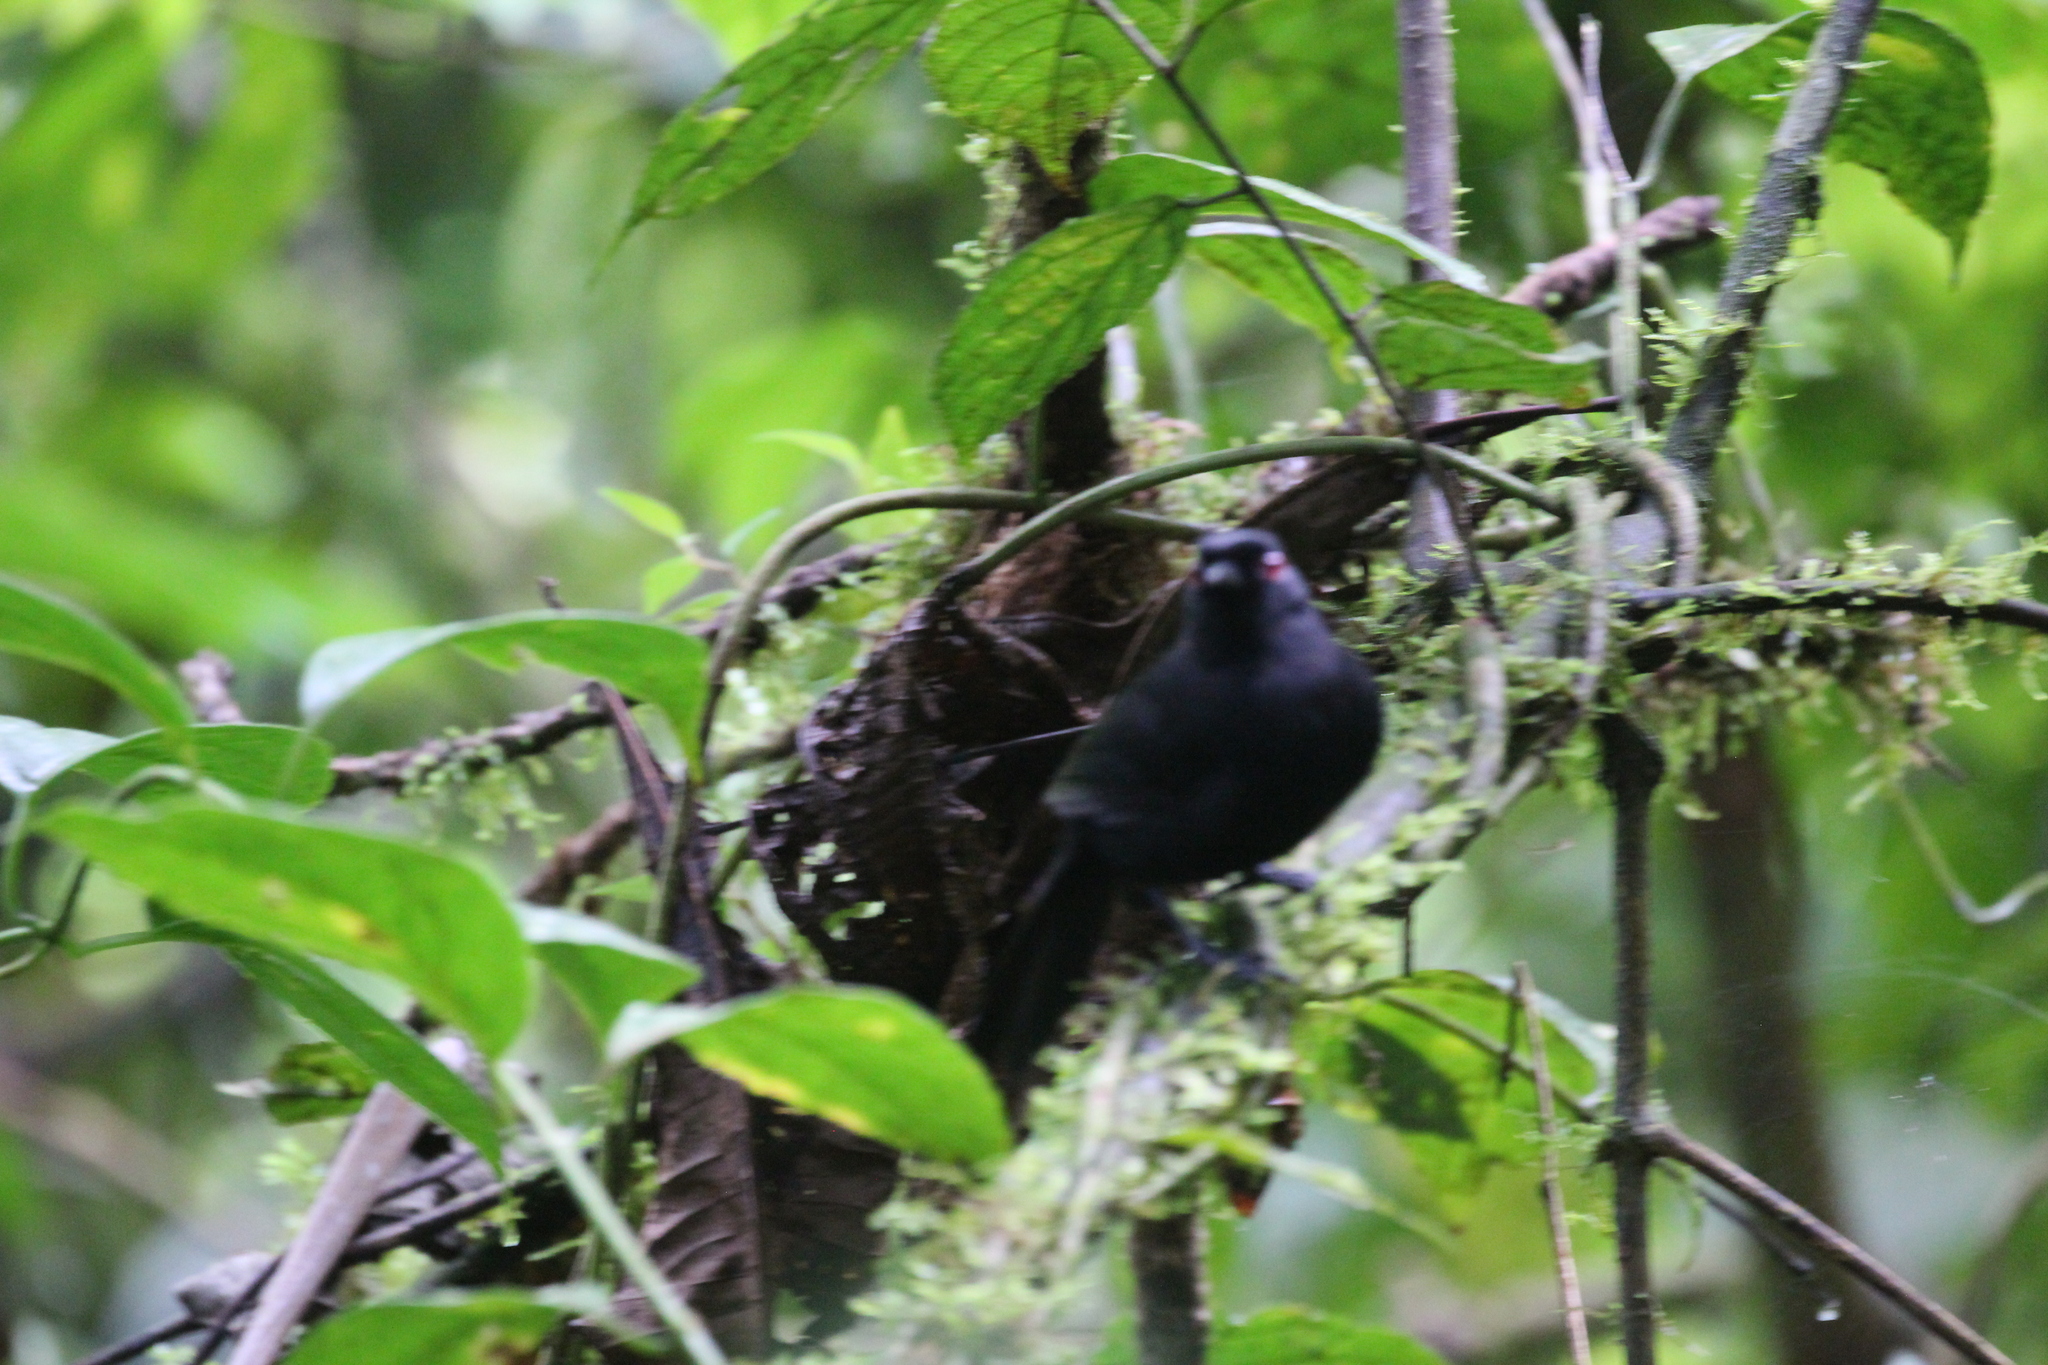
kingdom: Animalia
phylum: Chordata
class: Aves
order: Passeriformes
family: Thamnophilidae
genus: Pyriglena
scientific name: Pyriglena leuconota
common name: White-backed fire-eye
